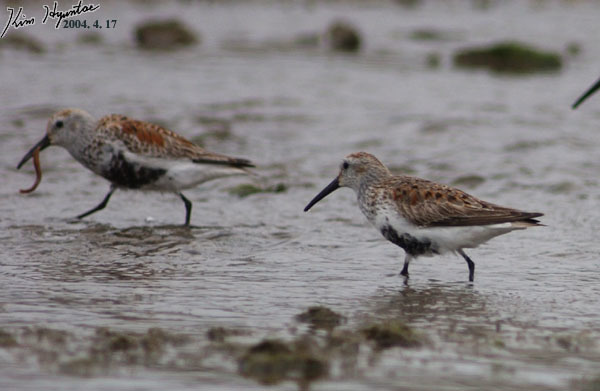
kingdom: Animalia
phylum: Chordata
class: Aves
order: Charadriiformes
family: Scolopacidae
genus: Calidris
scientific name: Calidris alpina
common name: Dunlin
